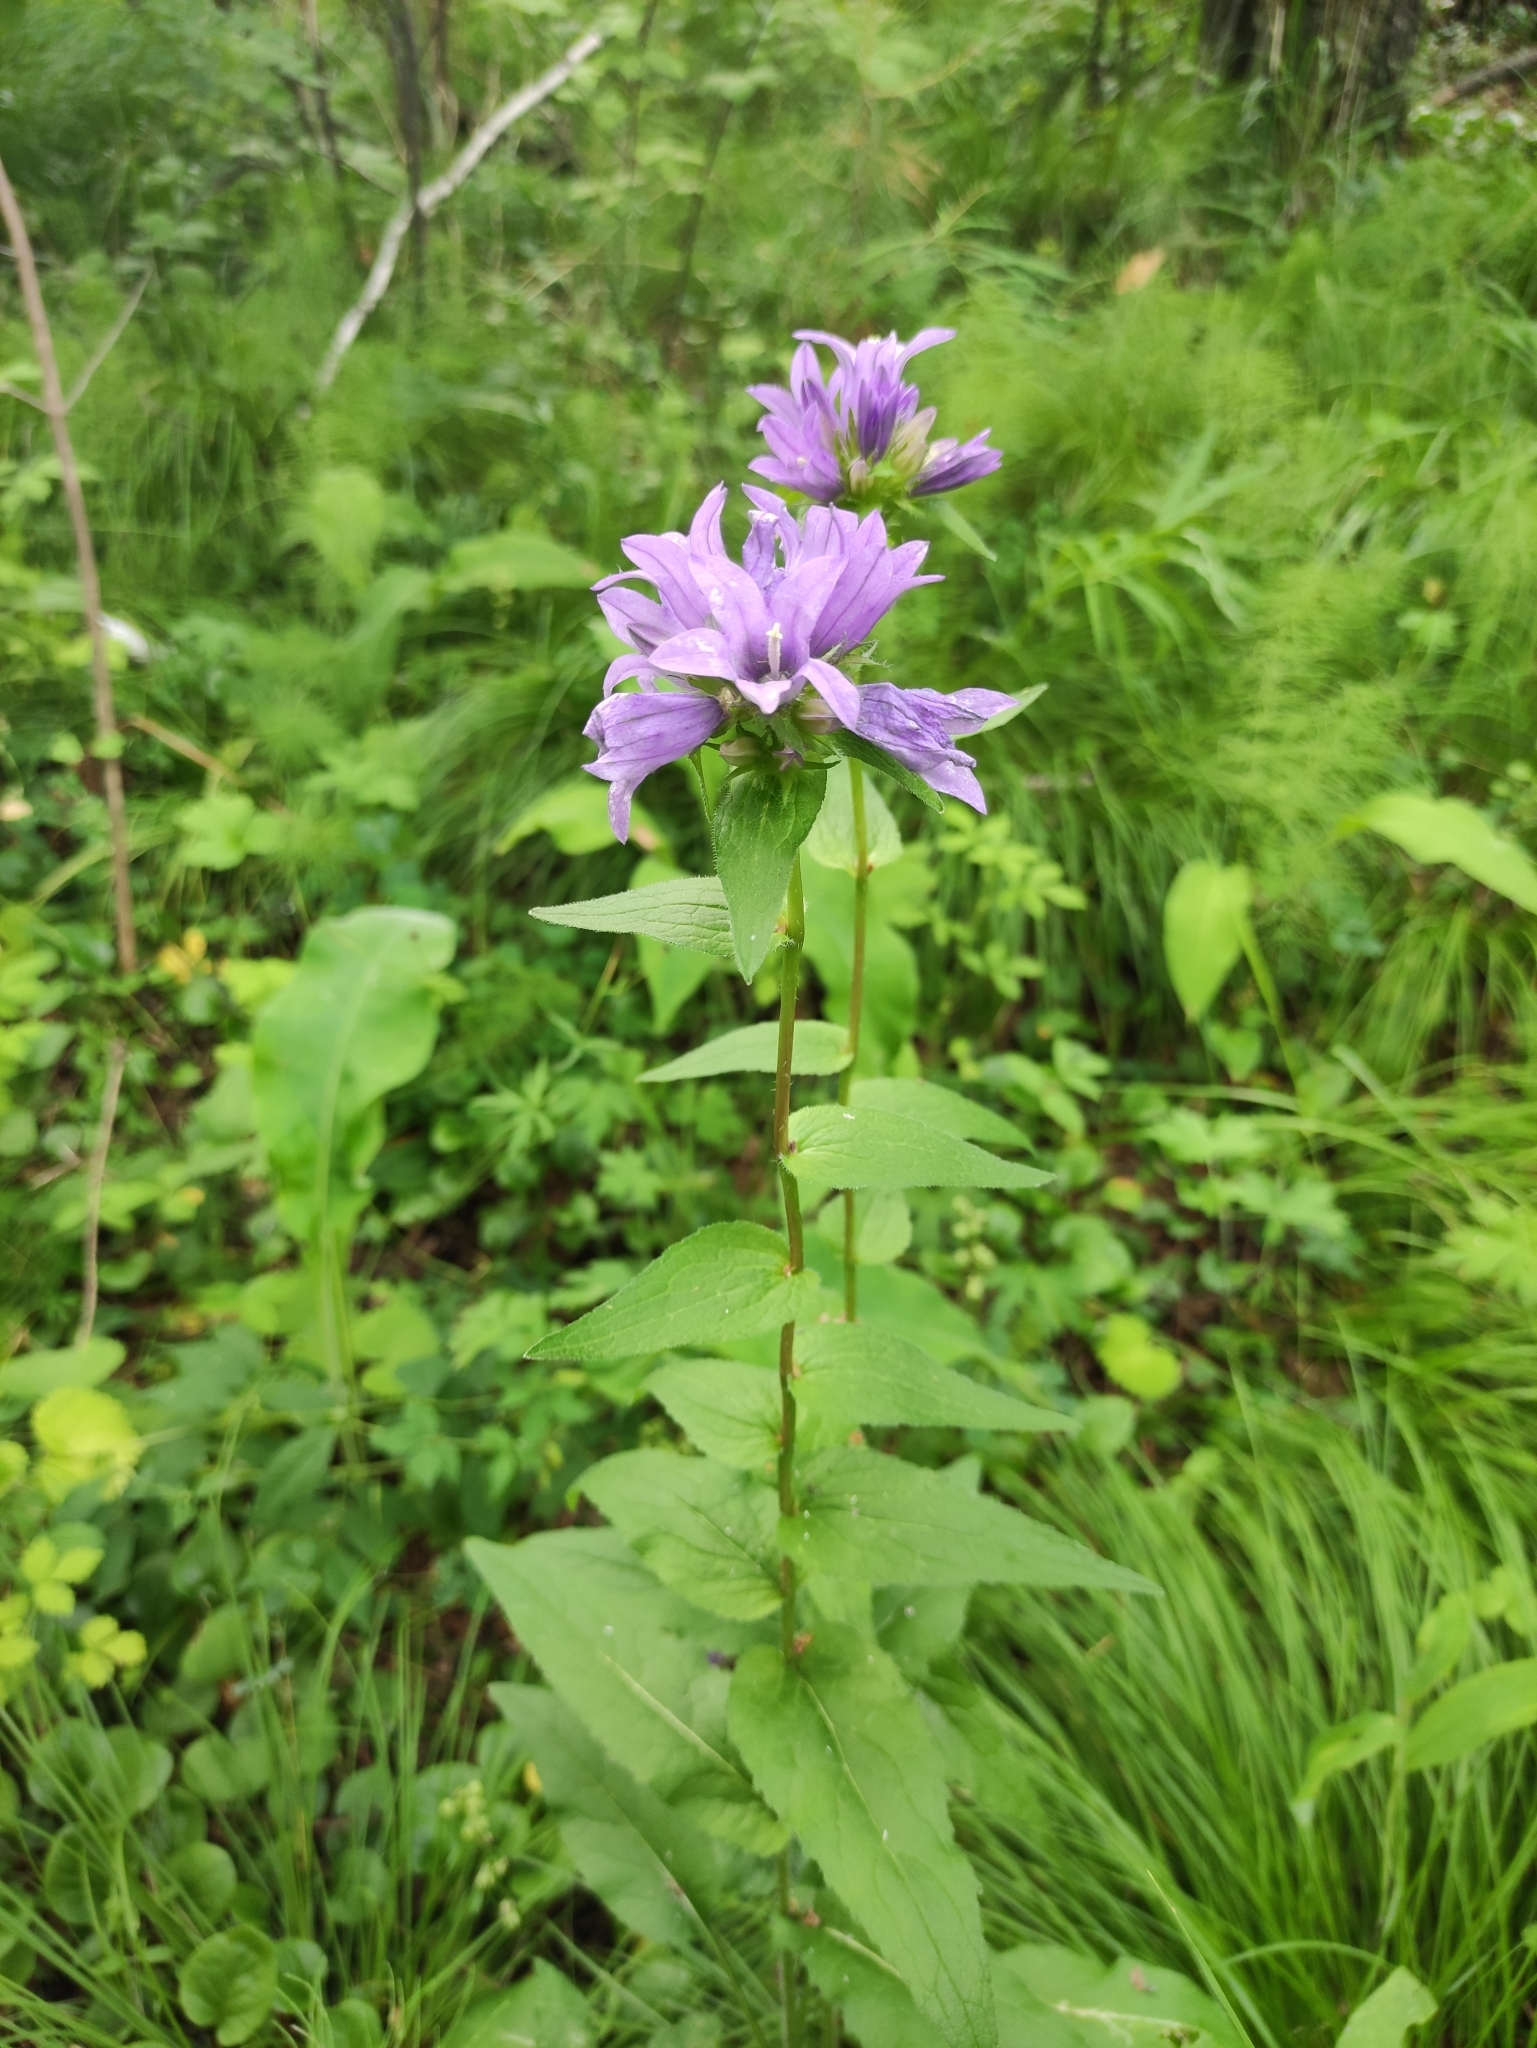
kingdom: Plantae
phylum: Tracheophyta
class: Magnoliopsida
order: Asterales
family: Campanulaceae
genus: Campanula
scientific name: Campanula glomerata
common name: Clustered bellflower
